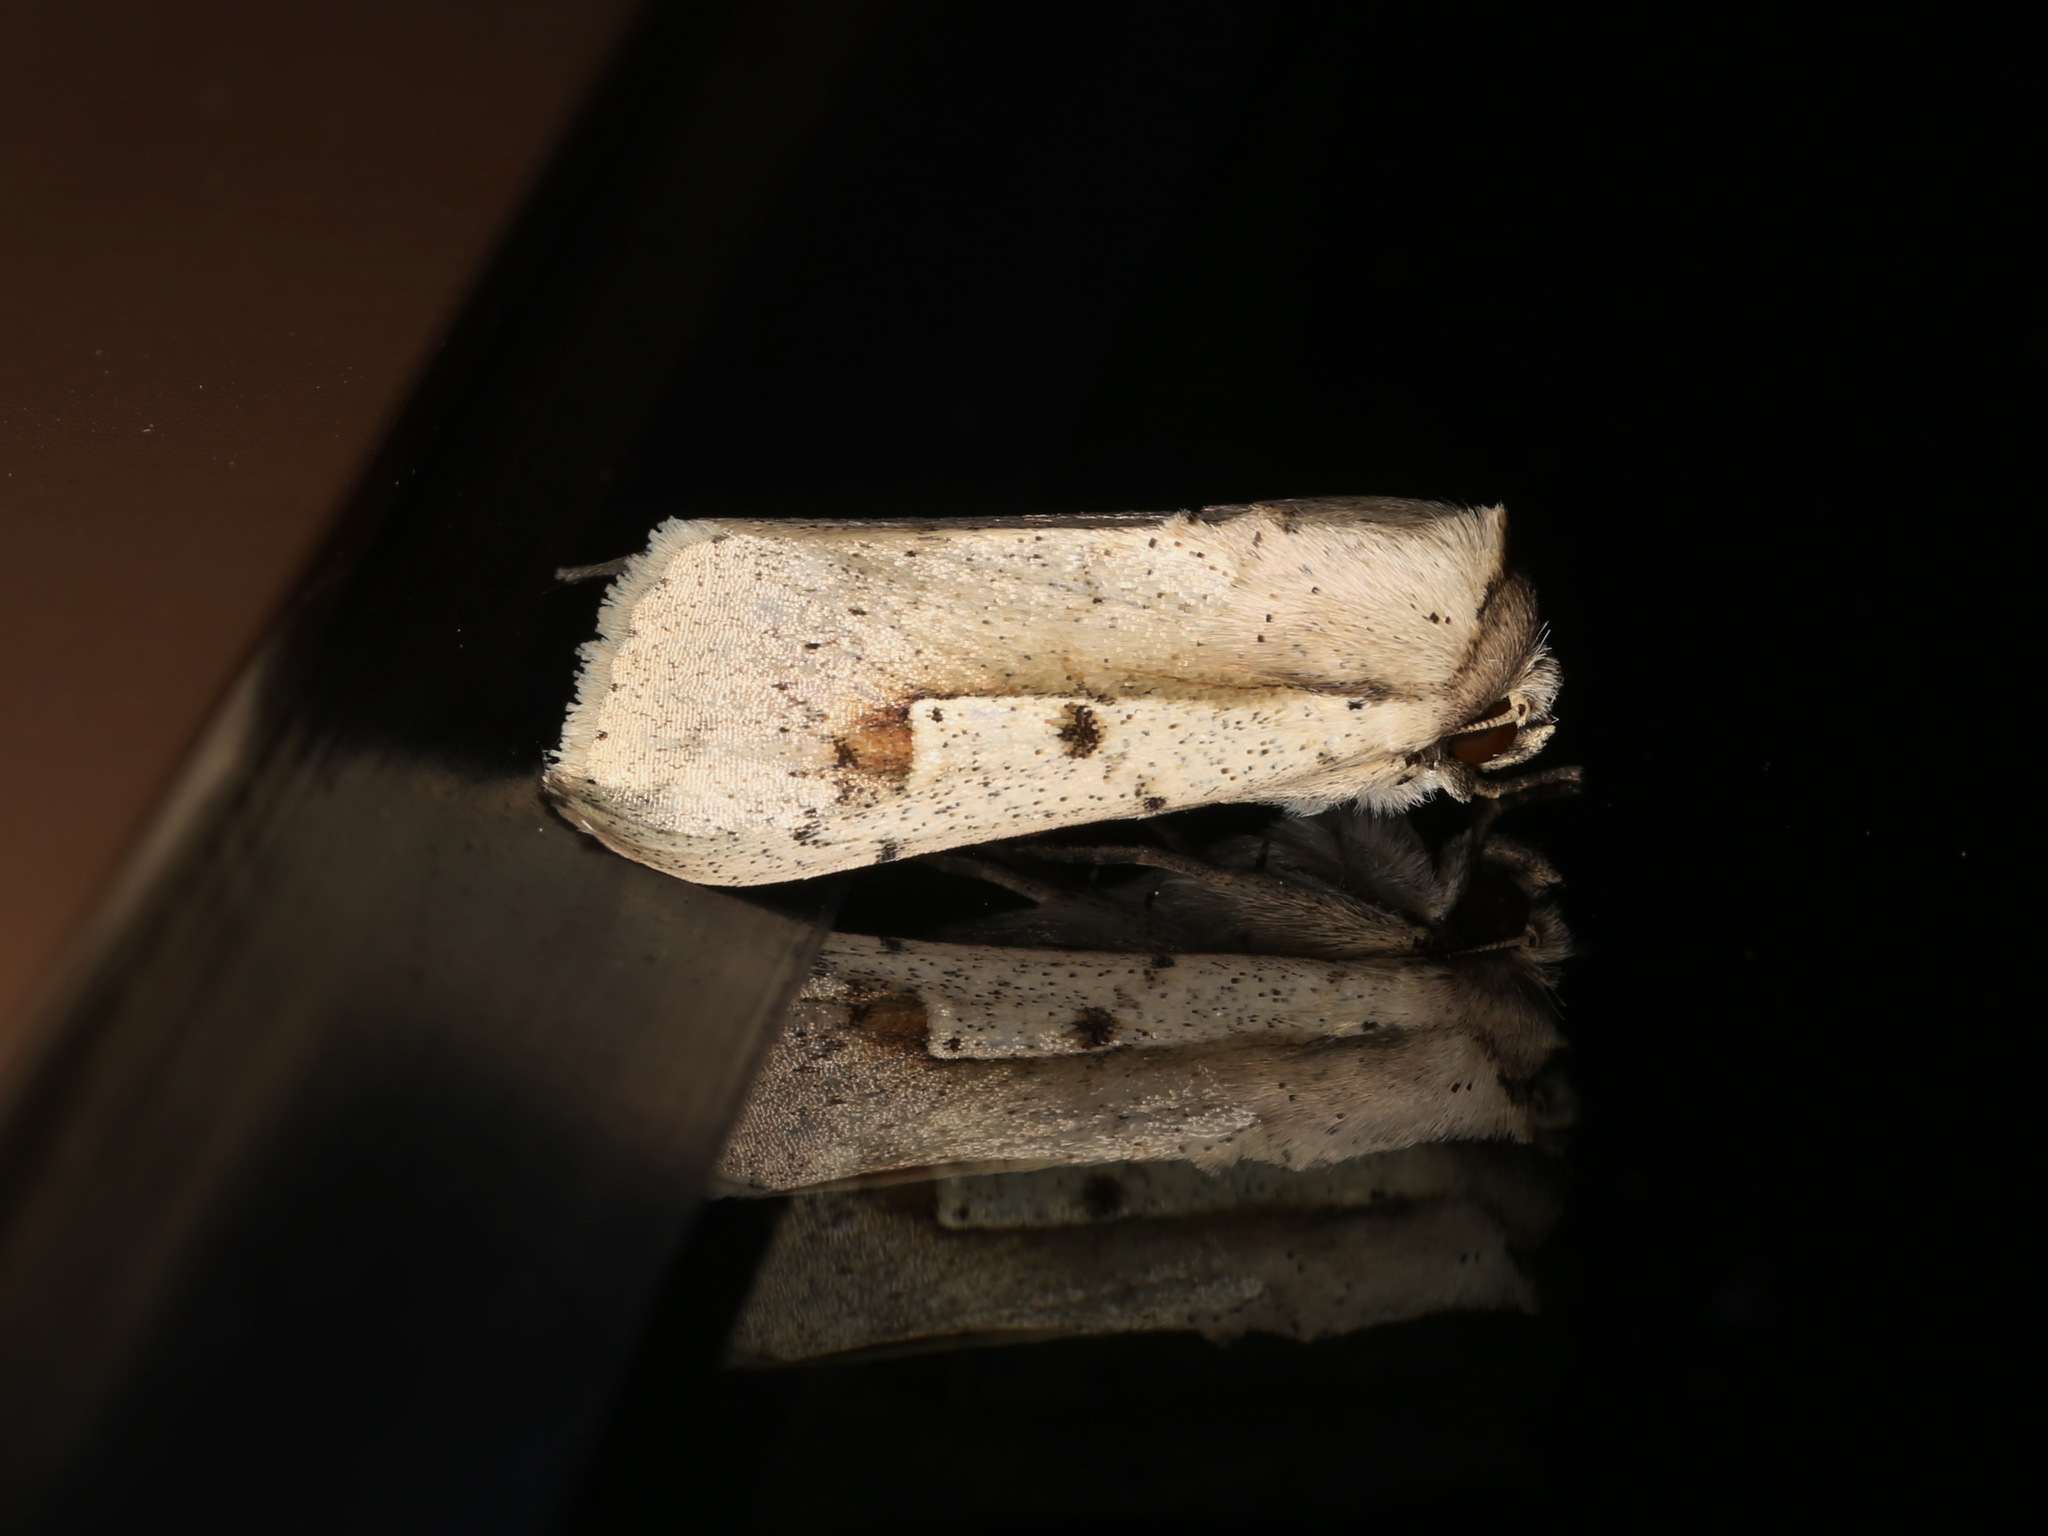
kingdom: Animalia
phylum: Arthropoda
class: Insecta
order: Lepidoptera
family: Noctuidae
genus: Leucania
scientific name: Leucania yu
